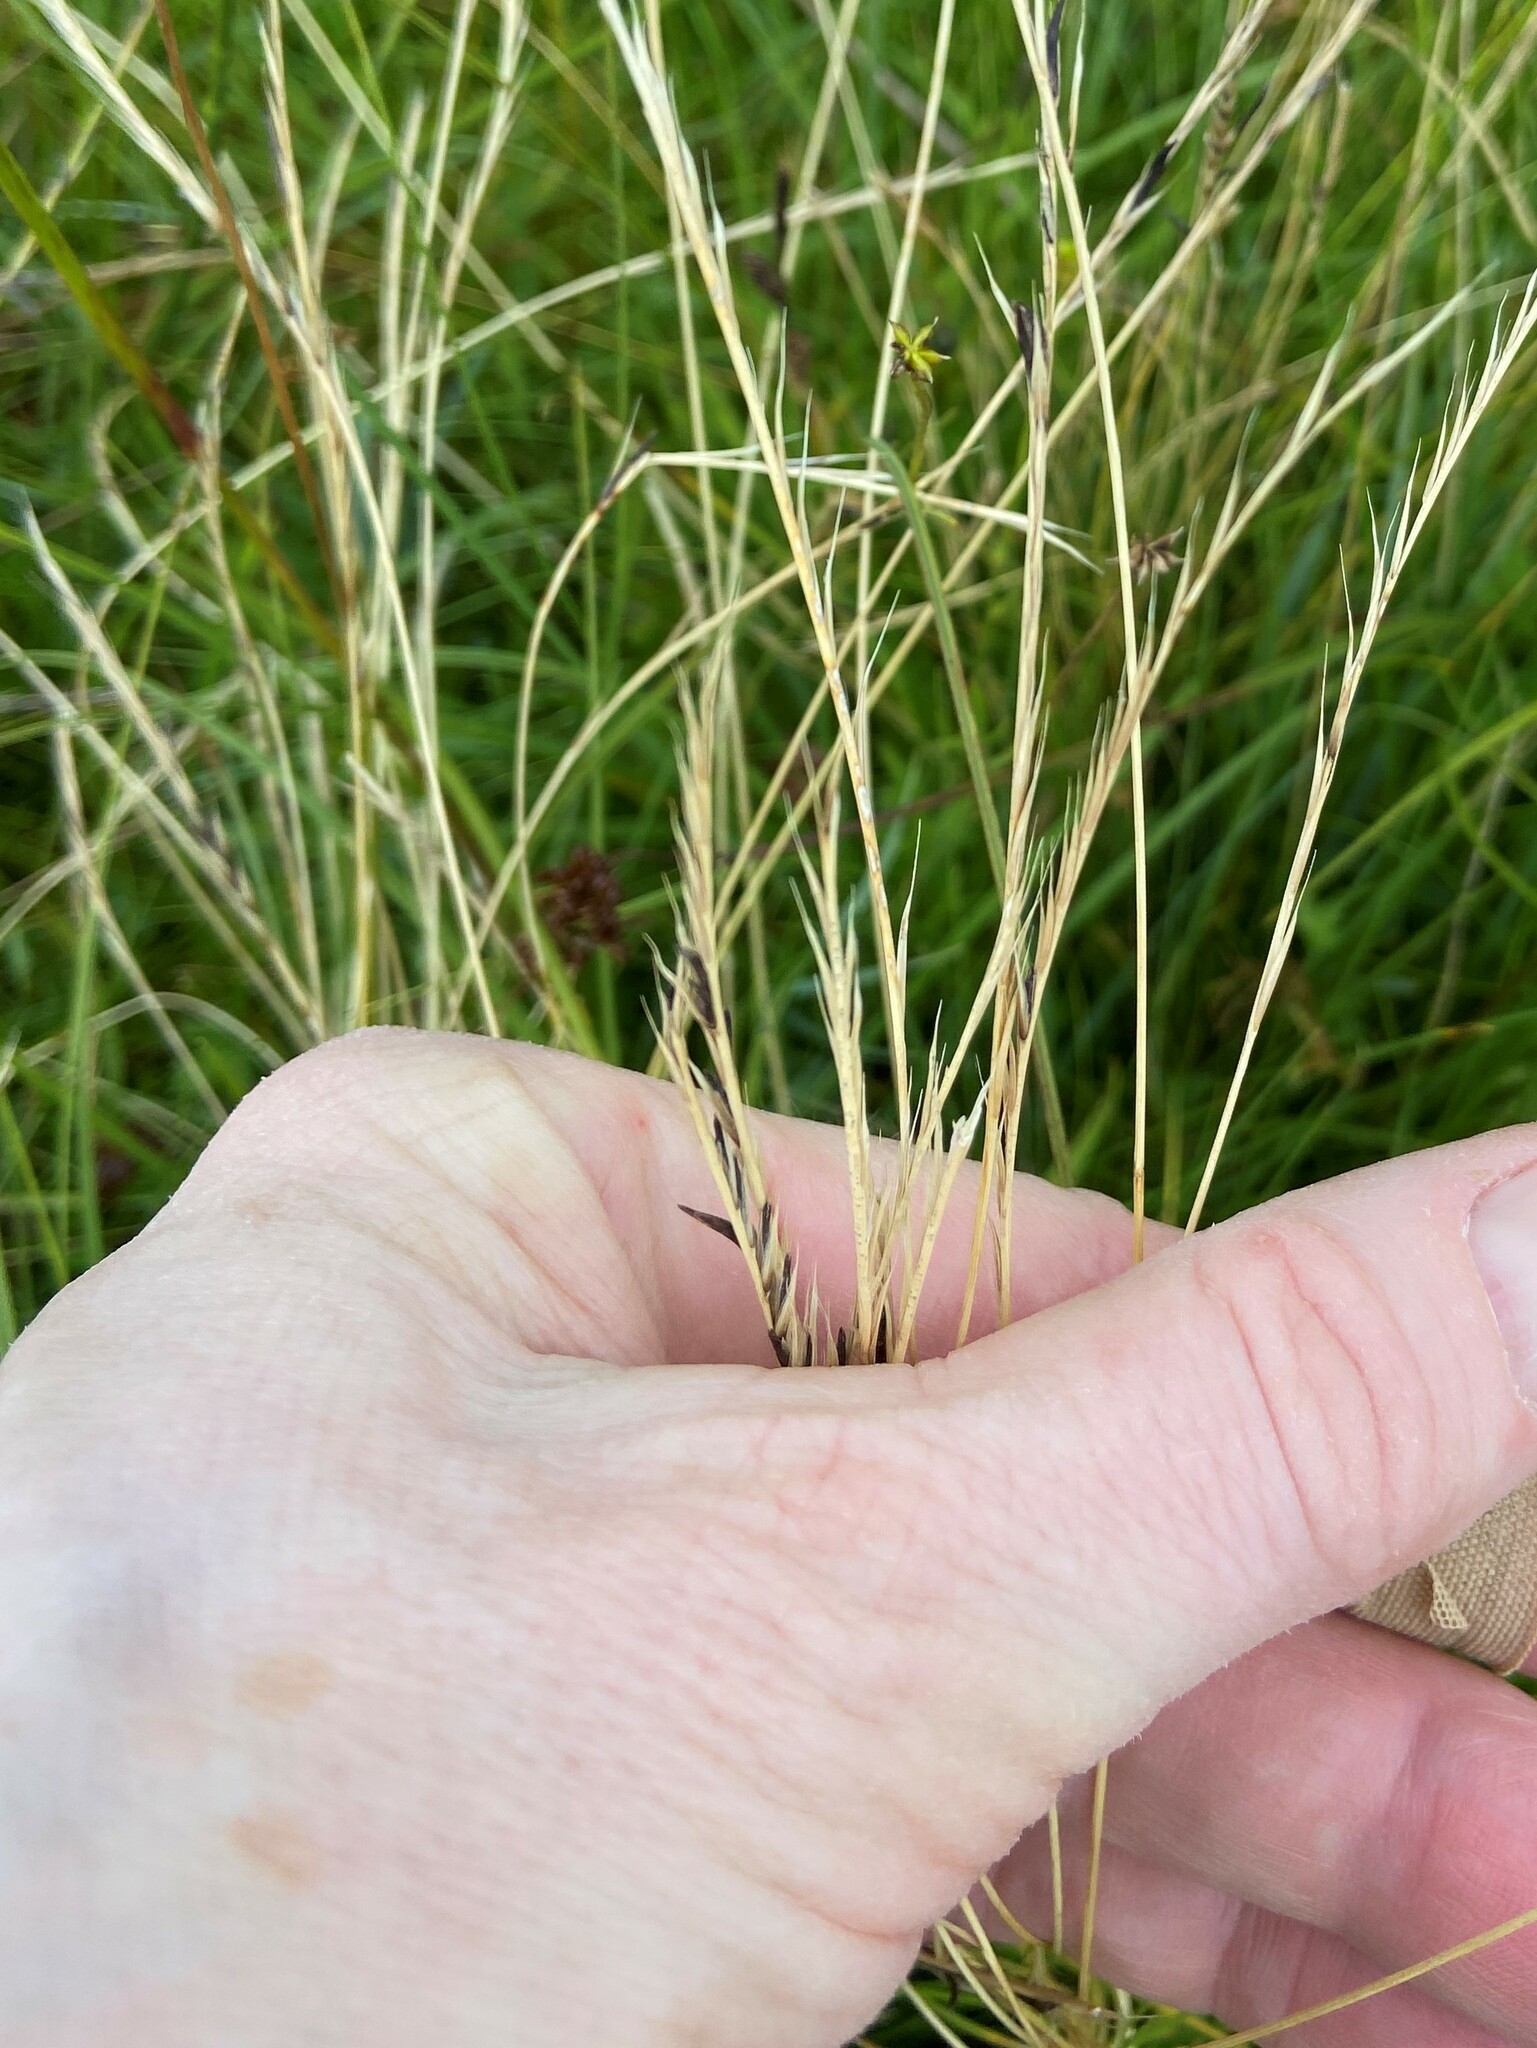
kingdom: Plantae
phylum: Tracheophyta
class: Liliopsida
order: Poales
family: Poaceae
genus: Nardus
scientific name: Nardus stricta
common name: Mat-grass
